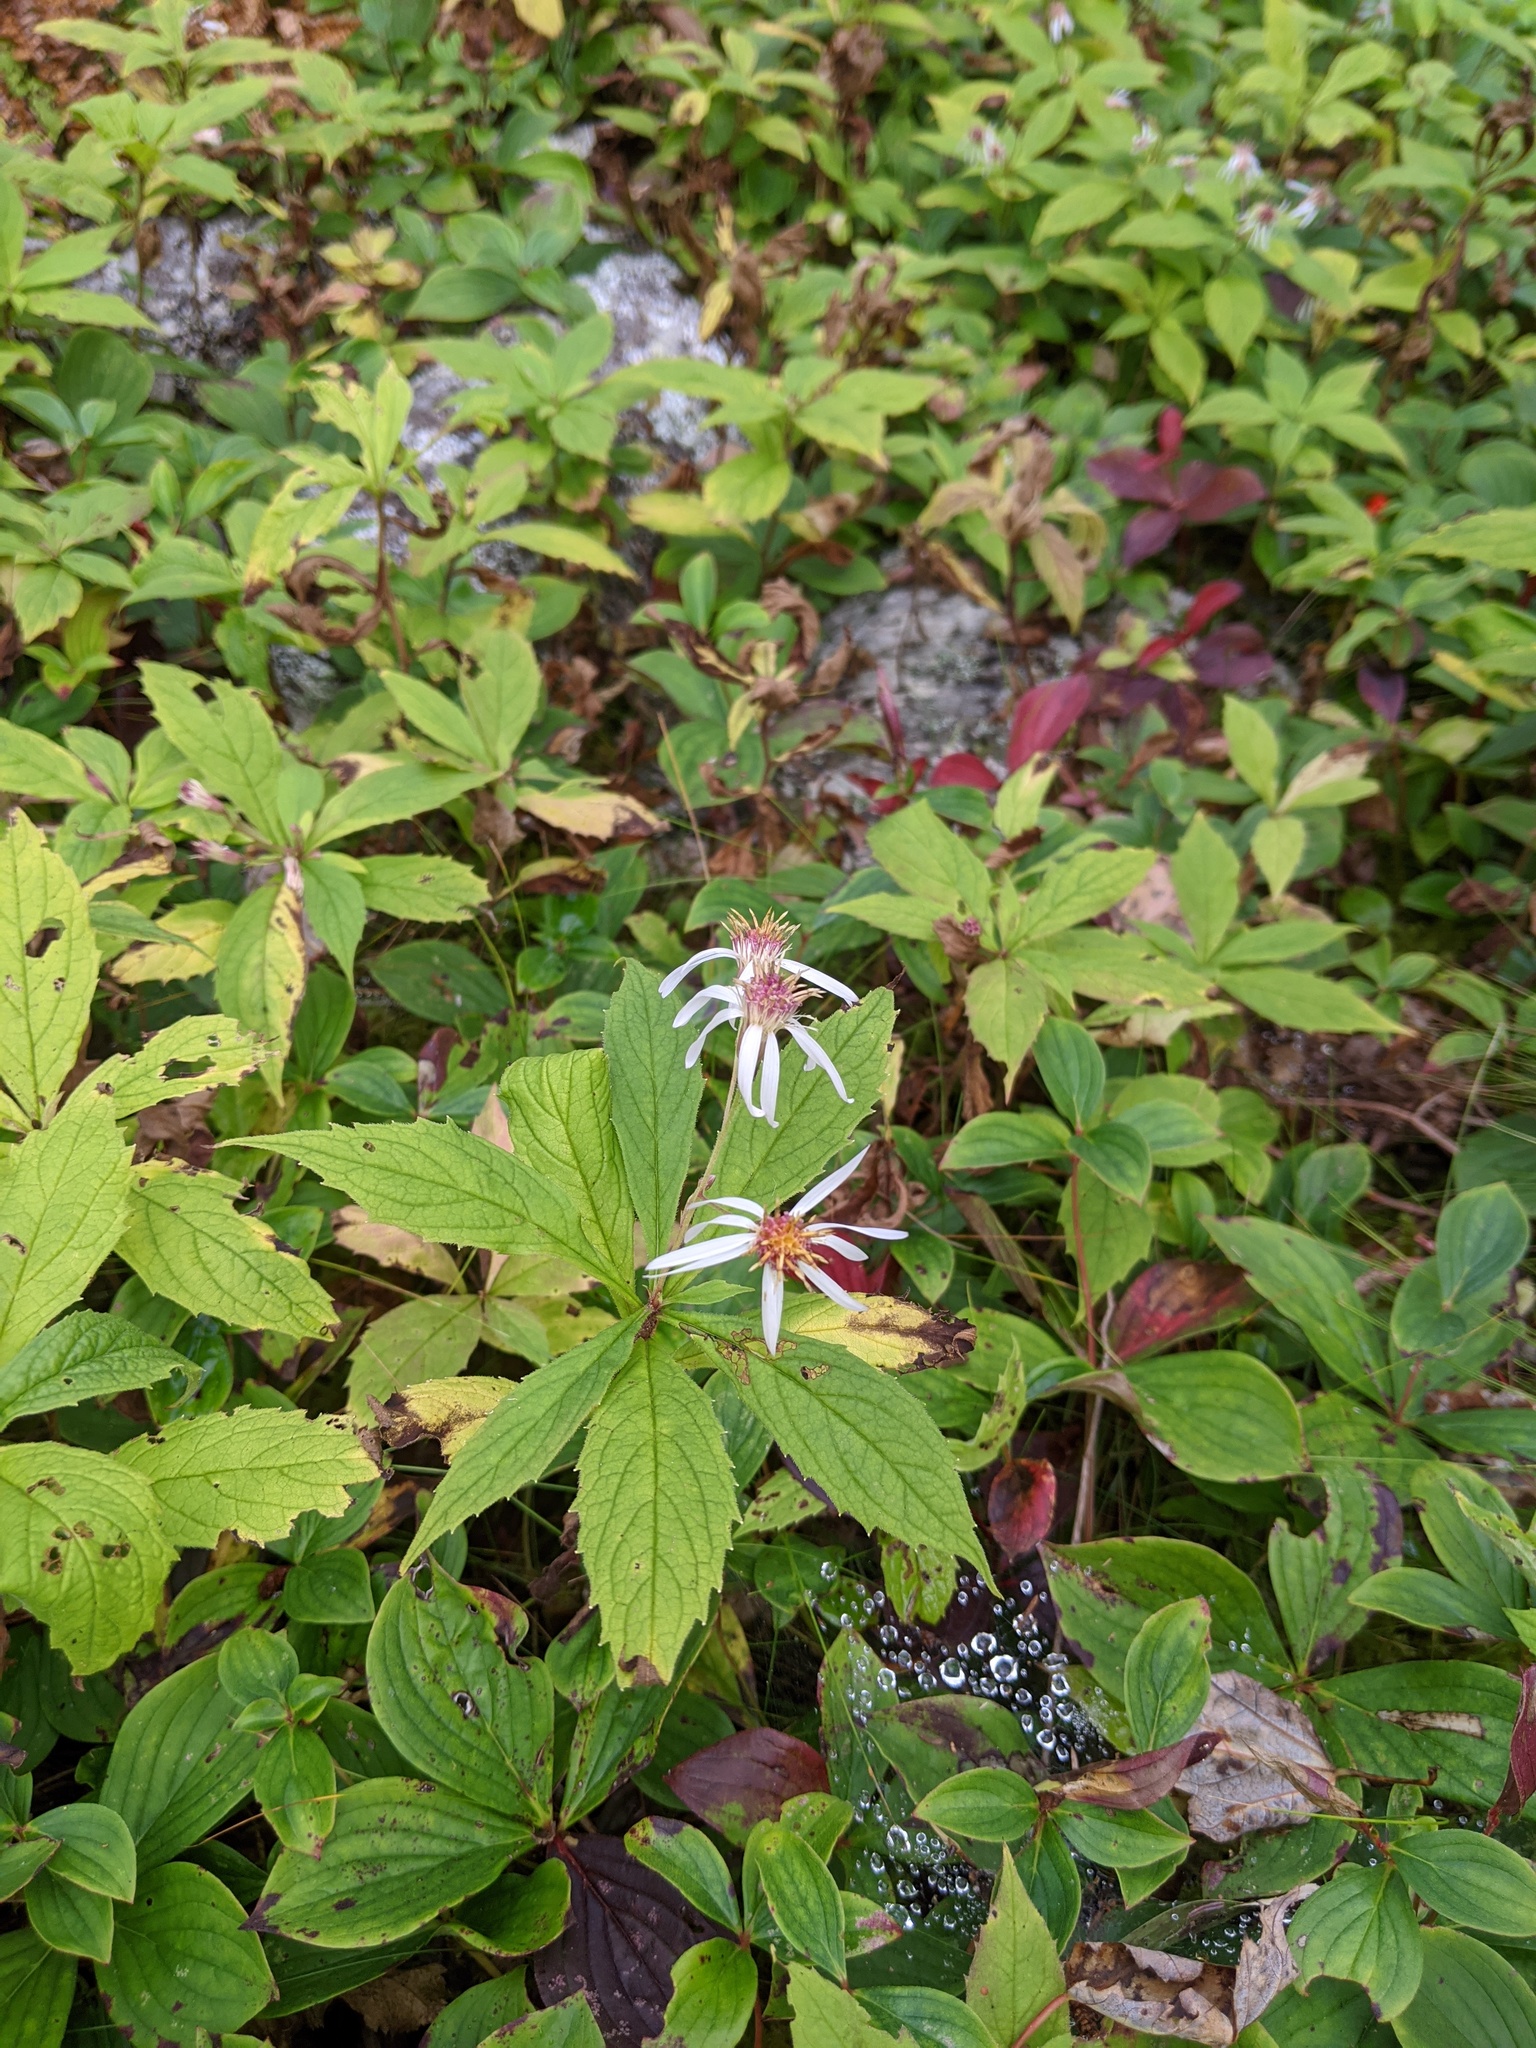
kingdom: Plantae
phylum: Tracheophyta
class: Magnoliopsida
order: Asterales
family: Asteraceae
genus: Oclemena
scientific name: Oclemena acuminata
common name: Mountain aster
